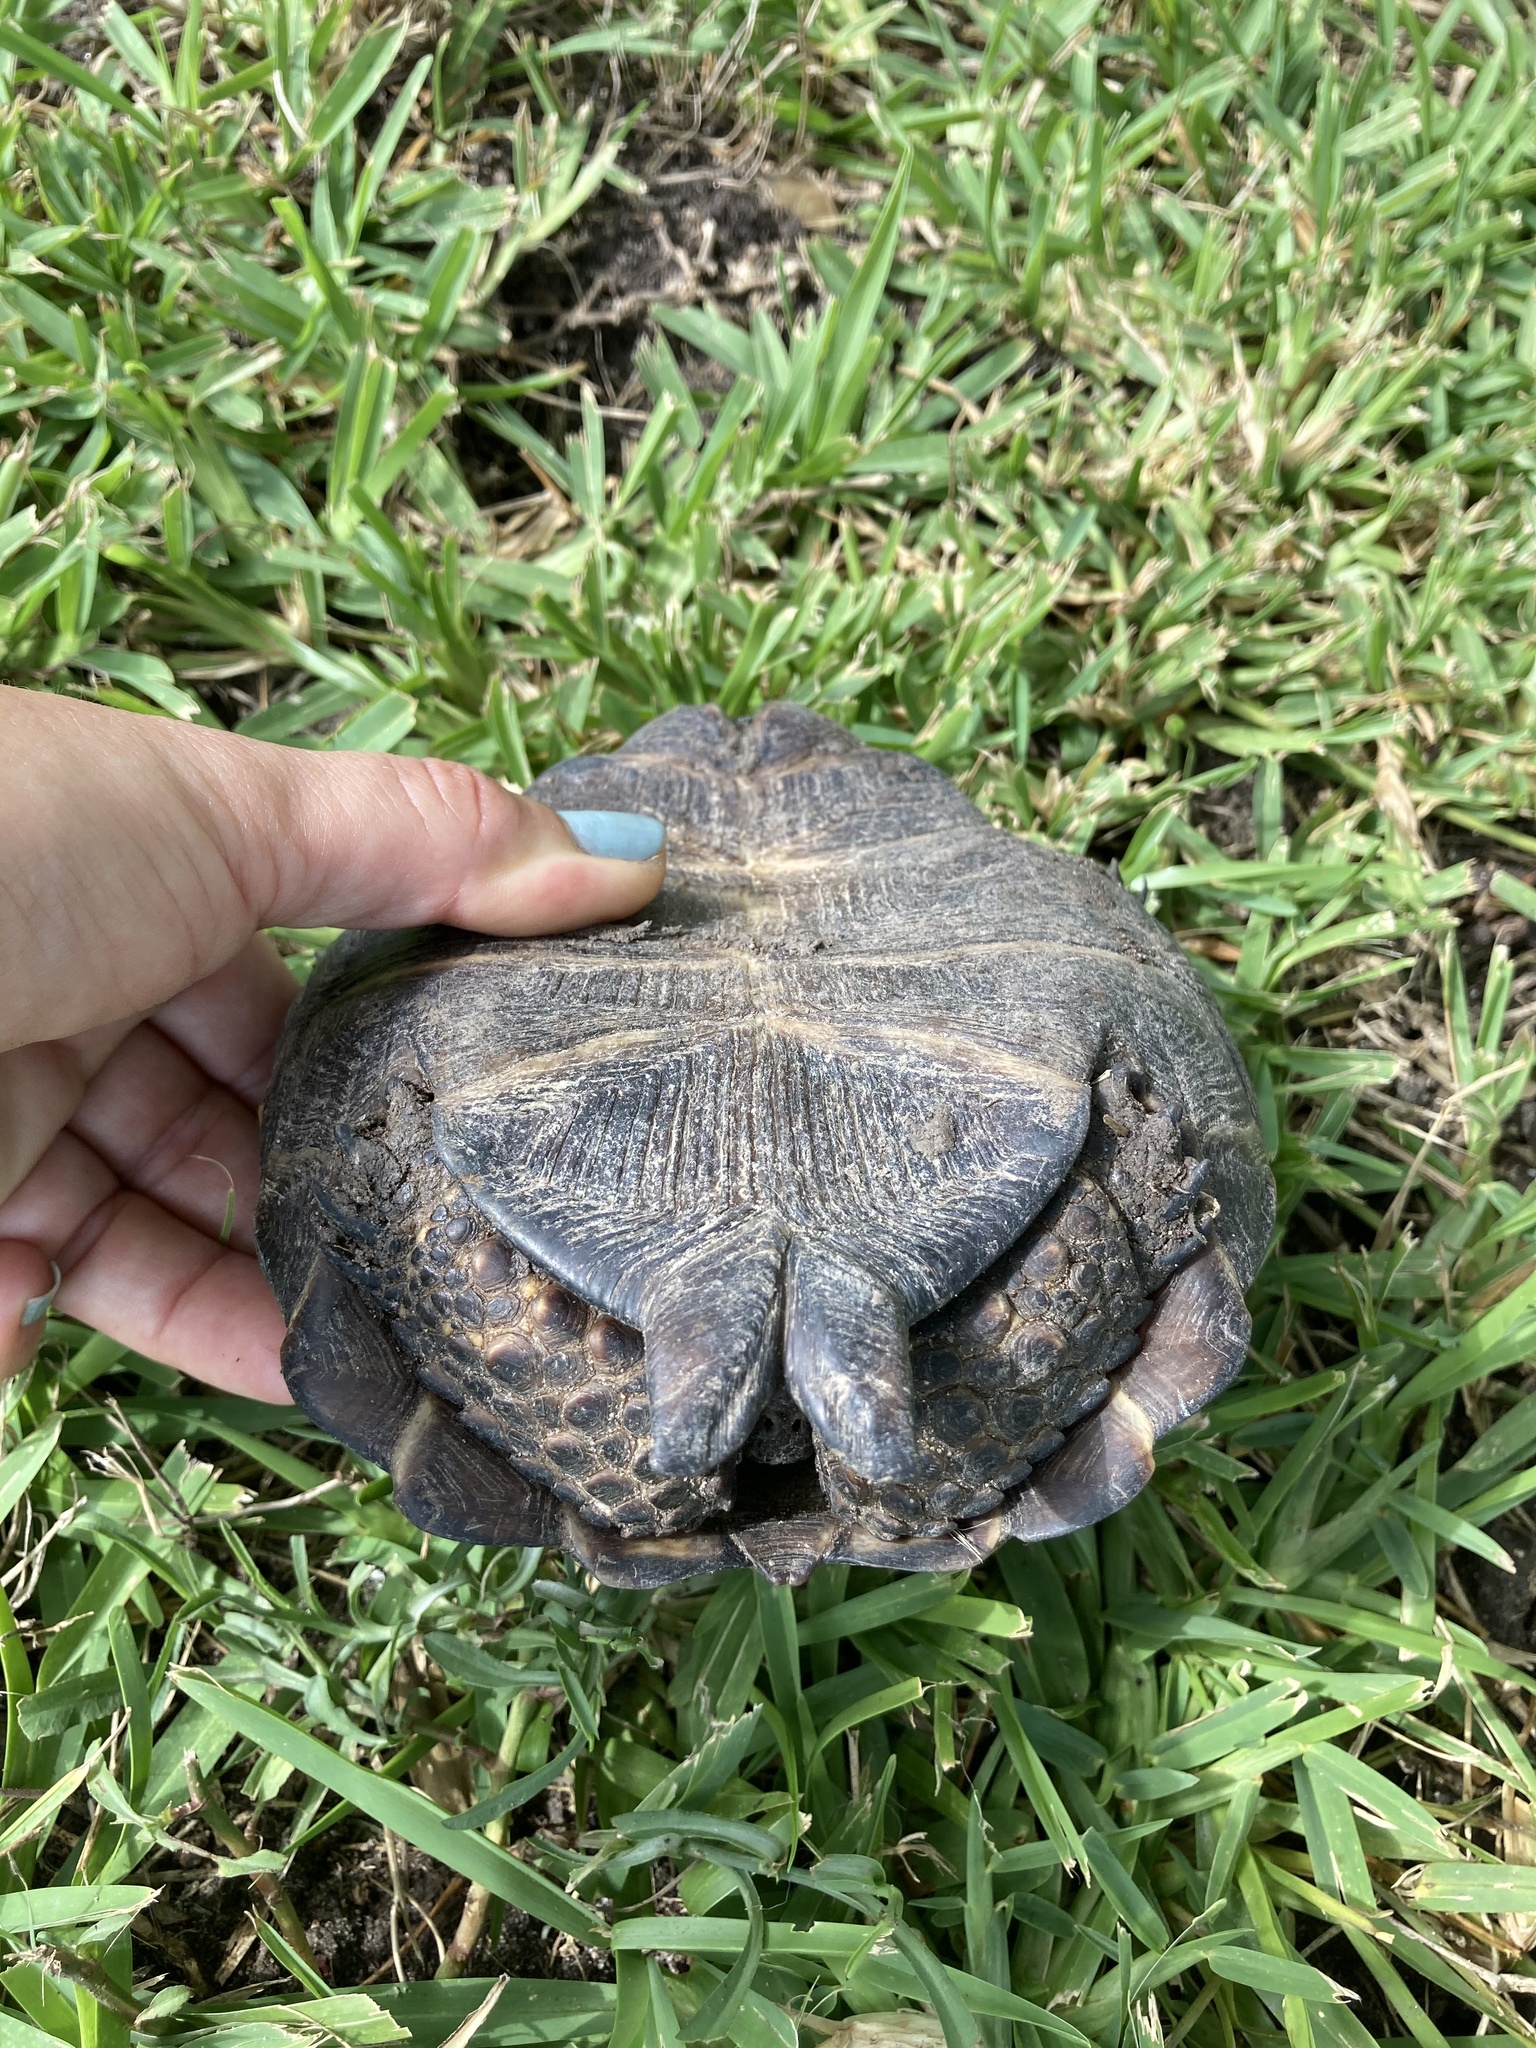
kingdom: Animalia
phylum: Chordata
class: Testudines
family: Testudinidae
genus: Gopherus
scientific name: Gopherus berlandieri
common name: Texas (gopher )tortoise
